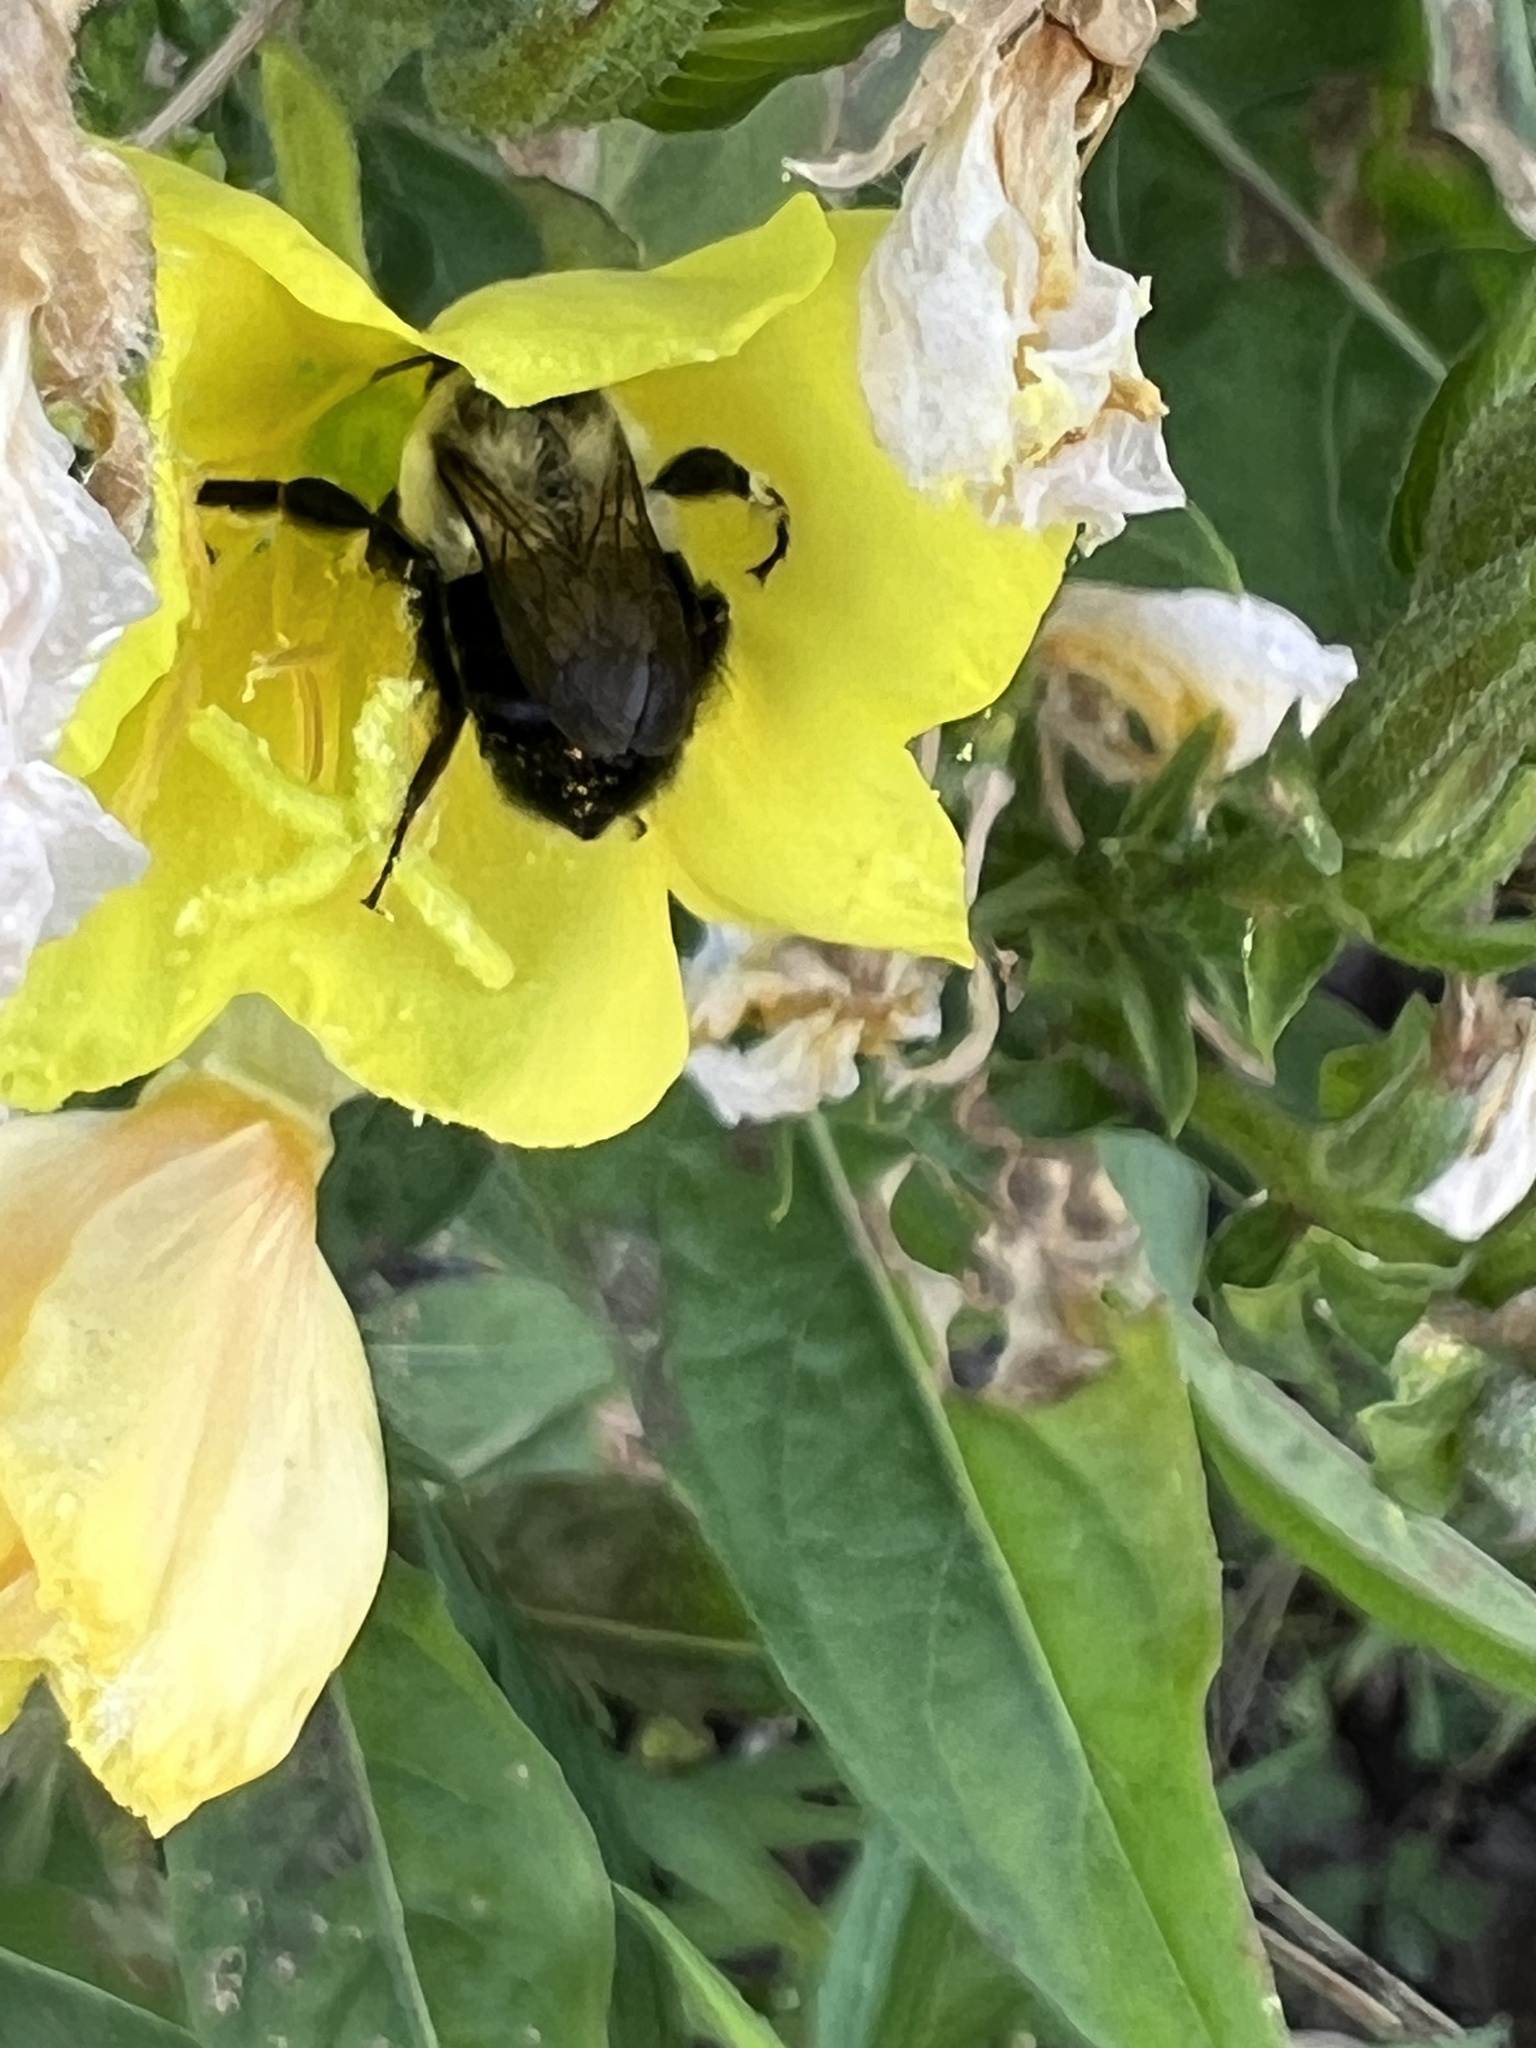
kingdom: Animalia
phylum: Arthropoda
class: Insecta
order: Hymenoptera
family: Apidae
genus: Bombus
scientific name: Bombus impatiens
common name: Common eastern bumble bee
